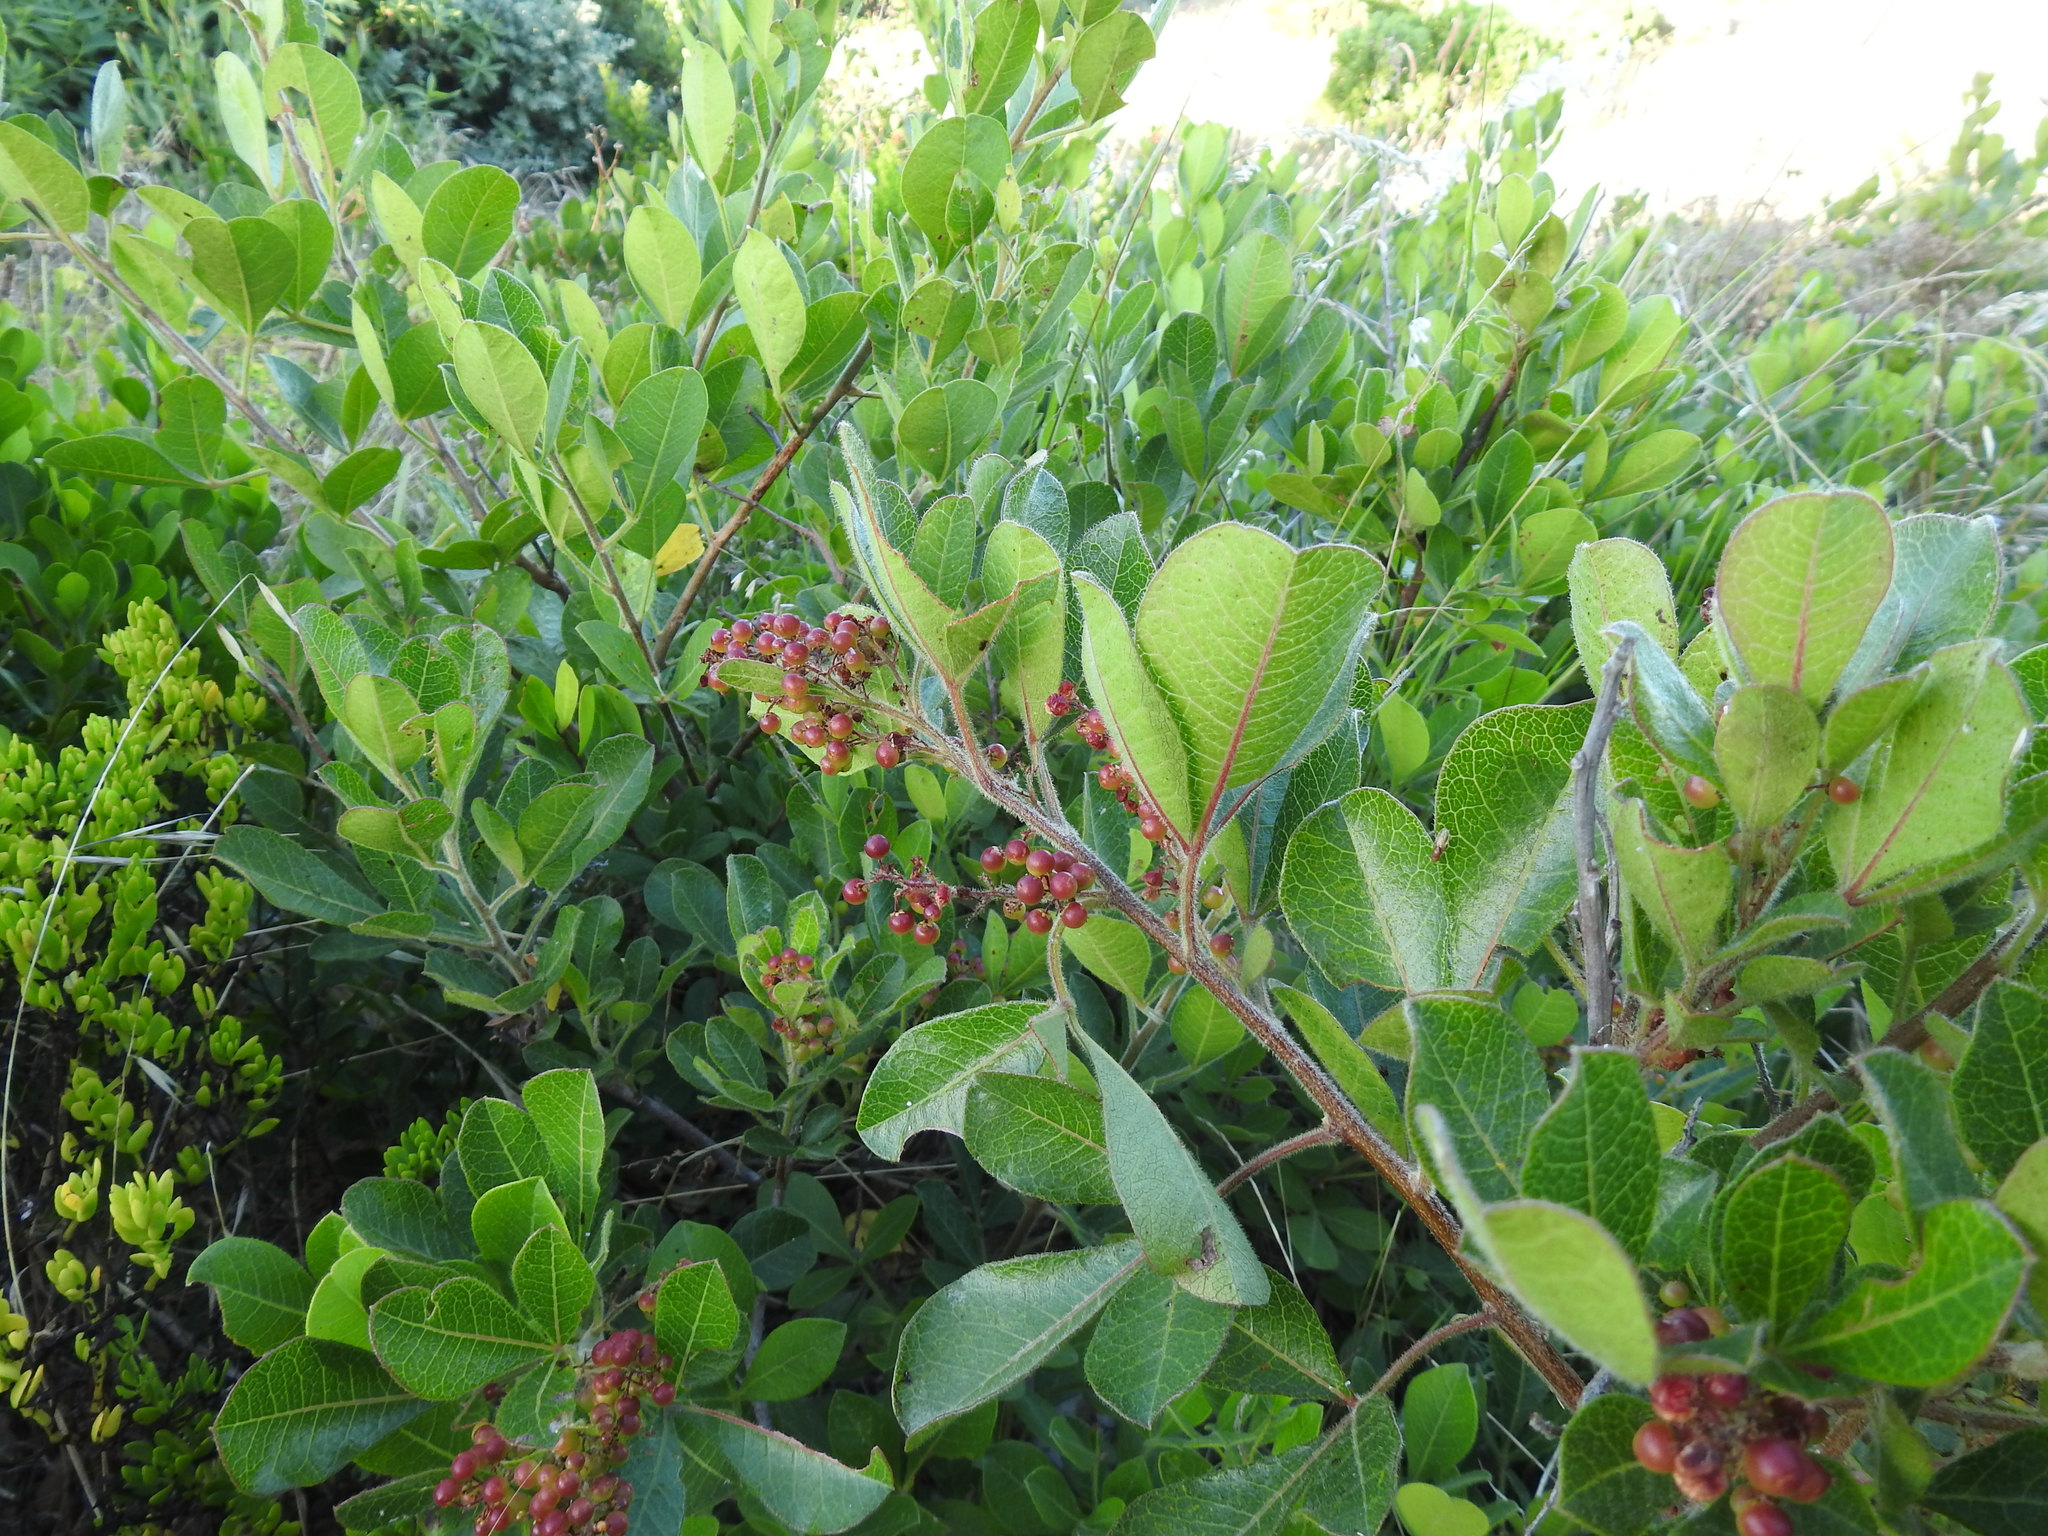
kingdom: Plantae
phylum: Tracheophyta
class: Magnoliopsida
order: Sapindales
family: Anacardiaceae
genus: Searsia
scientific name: Searsia laevigata
